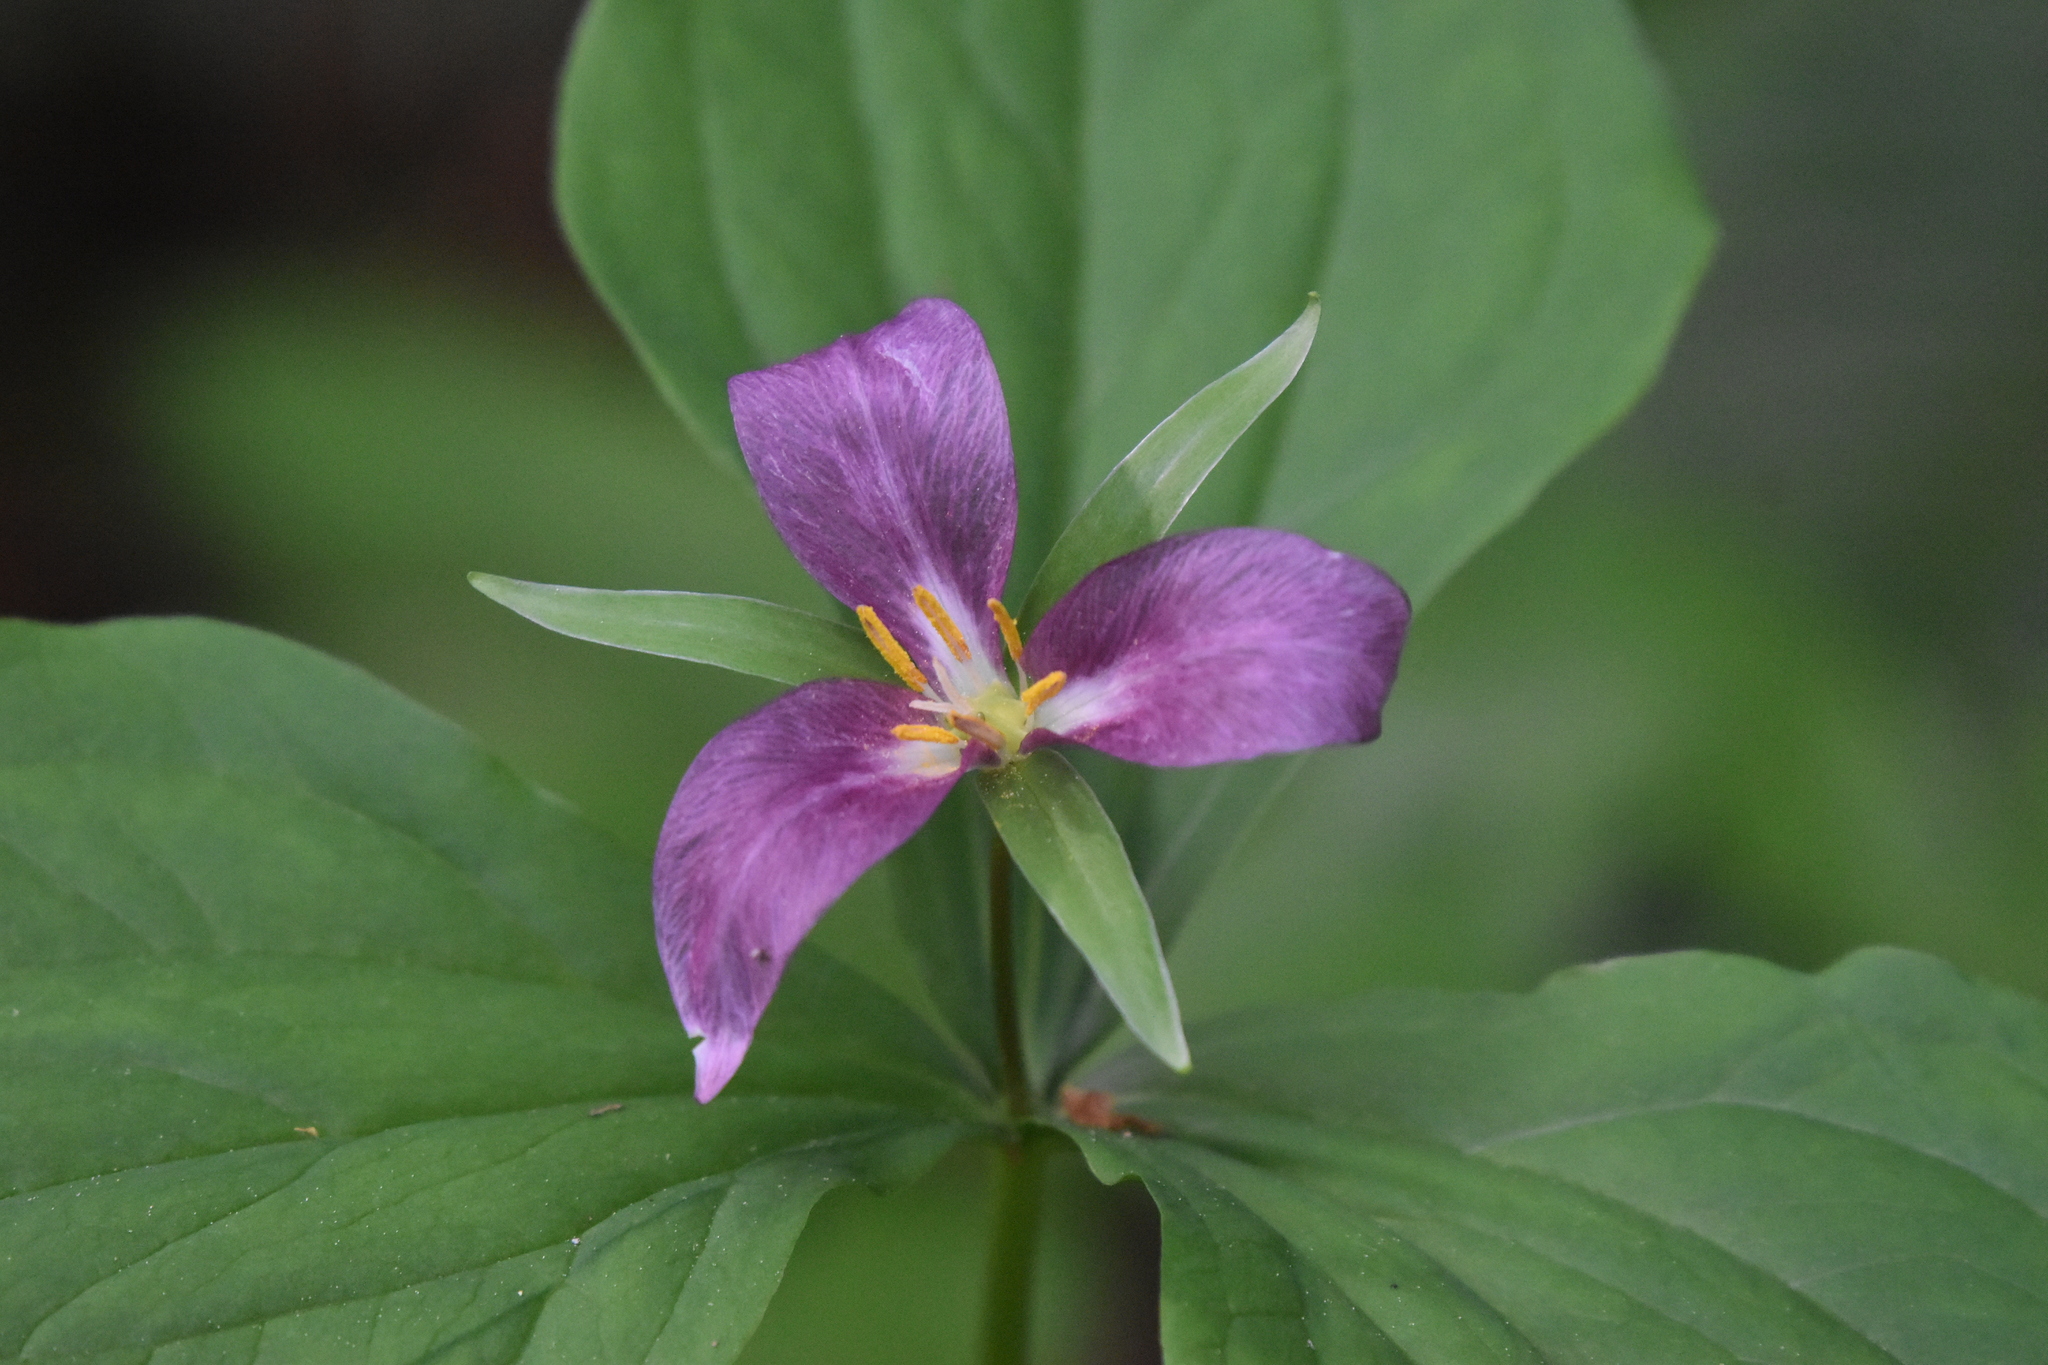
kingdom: Plantae
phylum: Tracheophyta
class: Liliopsida
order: Liliales
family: Melanthiaceae
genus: Trillium
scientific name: Trillium ovatum
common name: Pacific trillium
